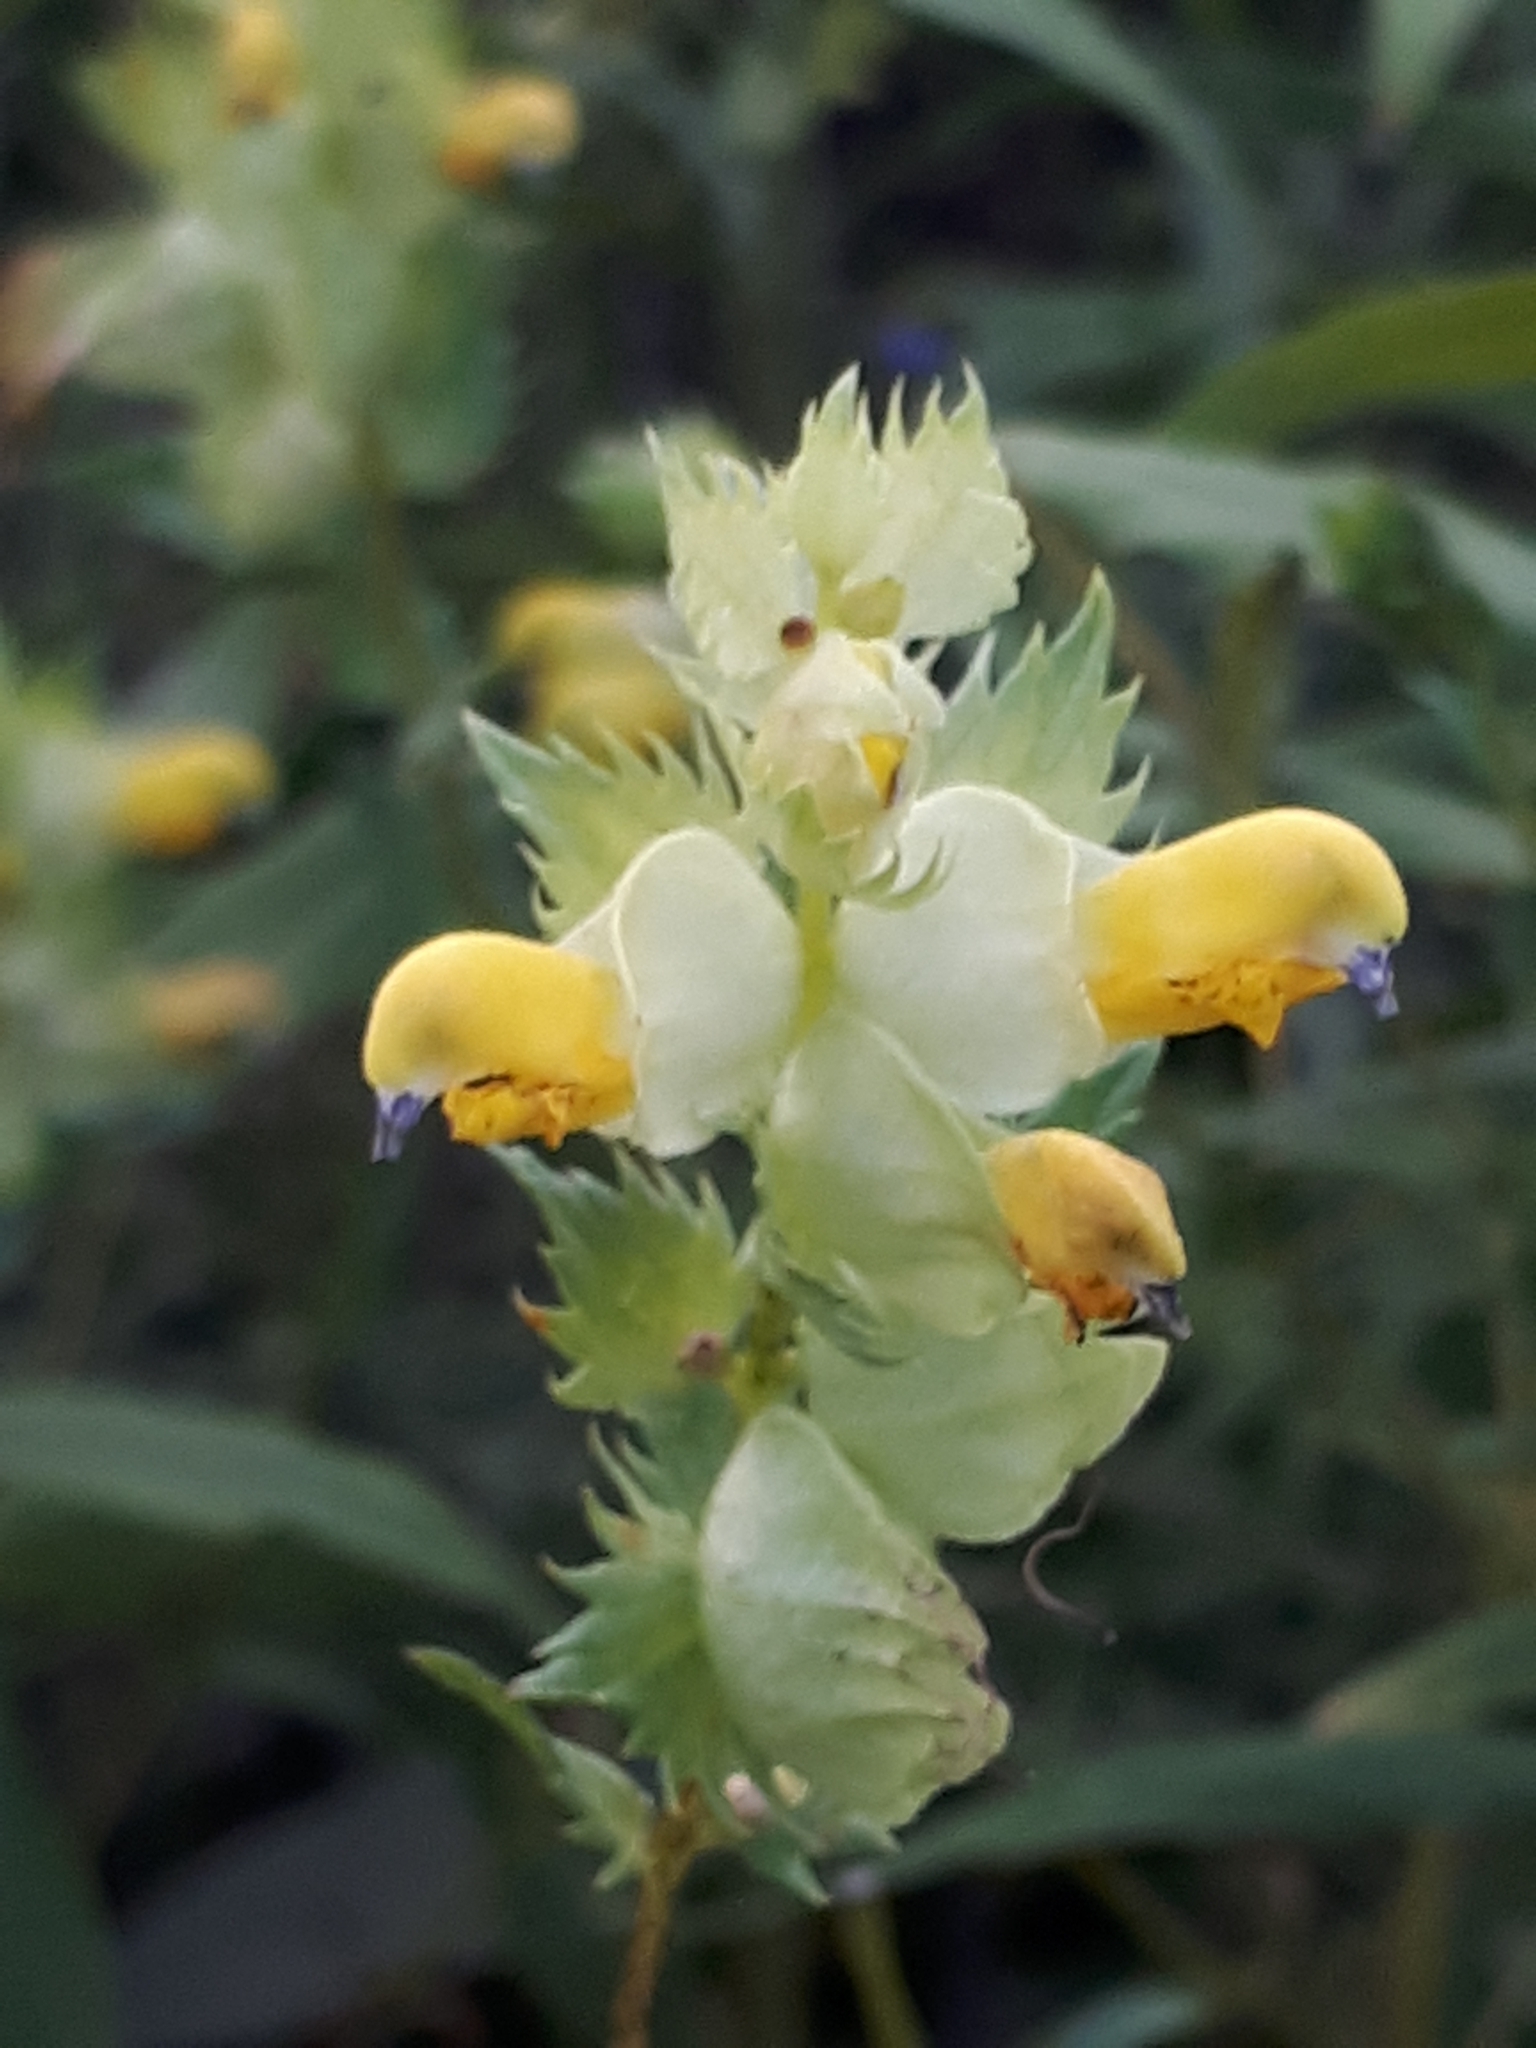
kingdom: Plantae
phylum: Tracheophyta
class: Magnoliopsida
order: Lamiales
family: Orobanchaceae
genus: Rhinanthus
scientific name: Rhinanthus serotinus
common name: Late-flowering yellow rattle
